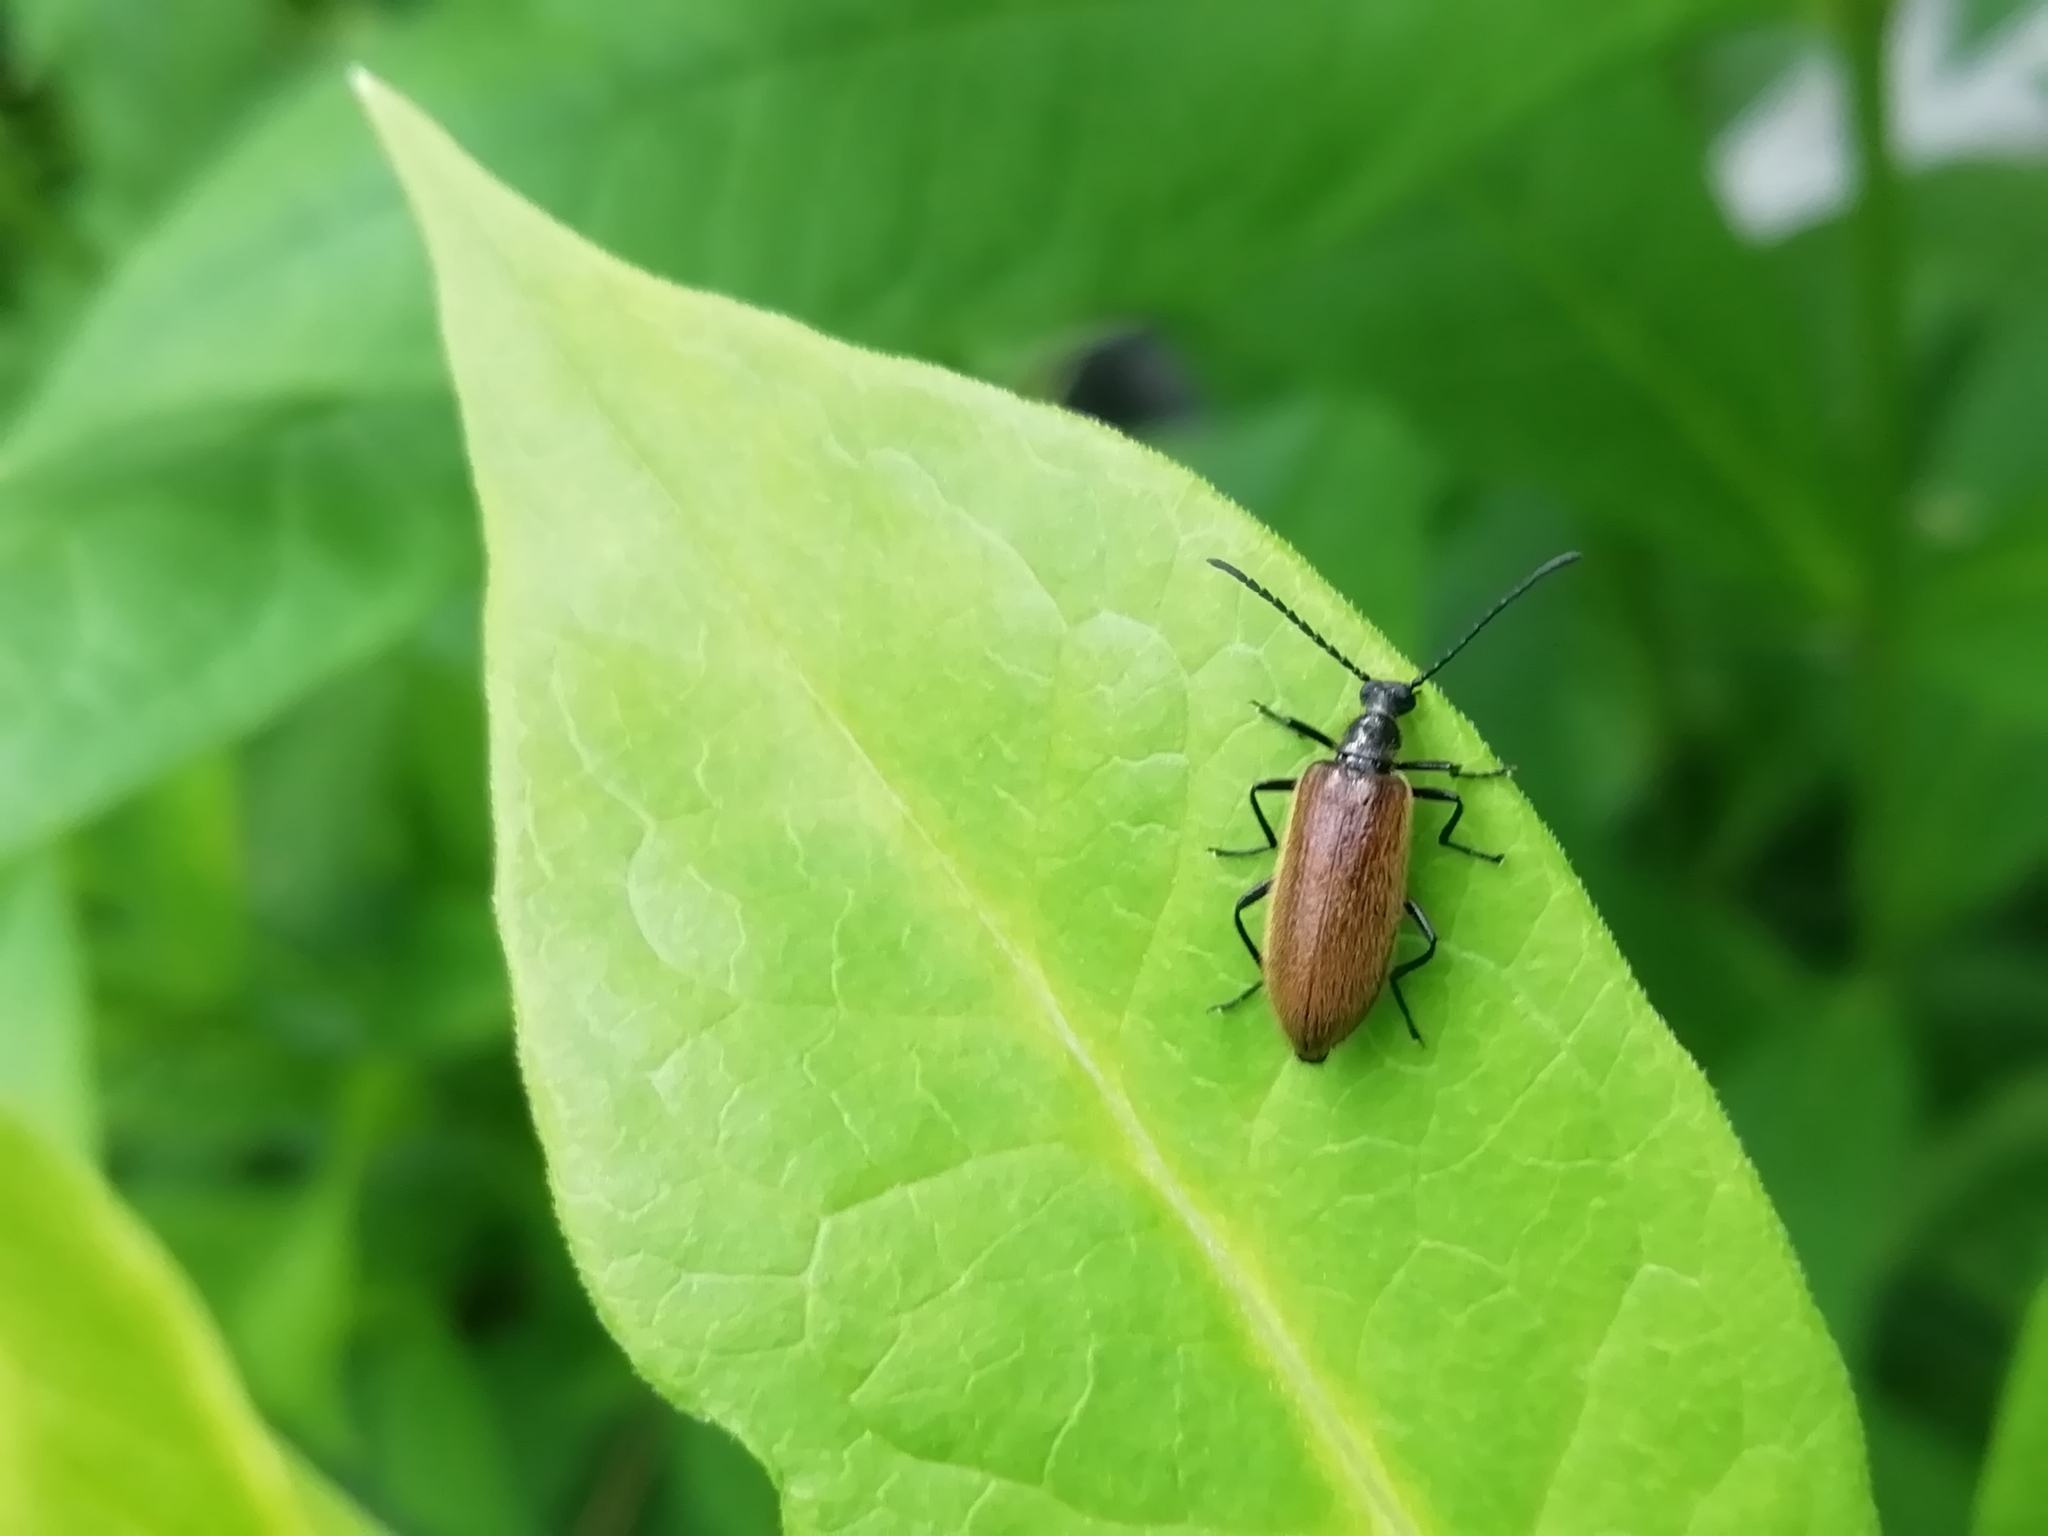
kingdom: Animalia
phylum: Arthropoda
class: Insecta
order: Coleoptera
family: Tenebrionidae
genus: Lagria
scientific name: Lagria hirta
